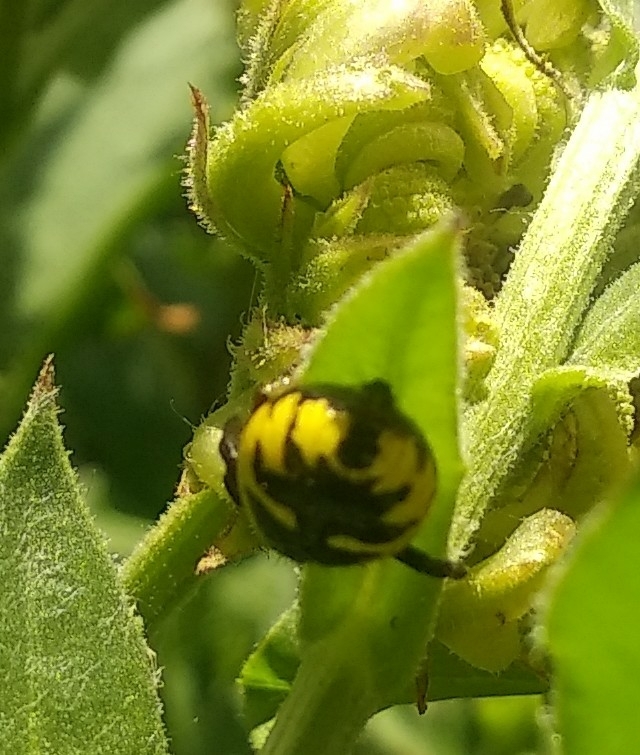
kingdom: Animalia
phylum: Arthropoda
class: Arachnida
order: Araneae
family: Thomisidae
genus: Synema
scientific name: Synema globosum
